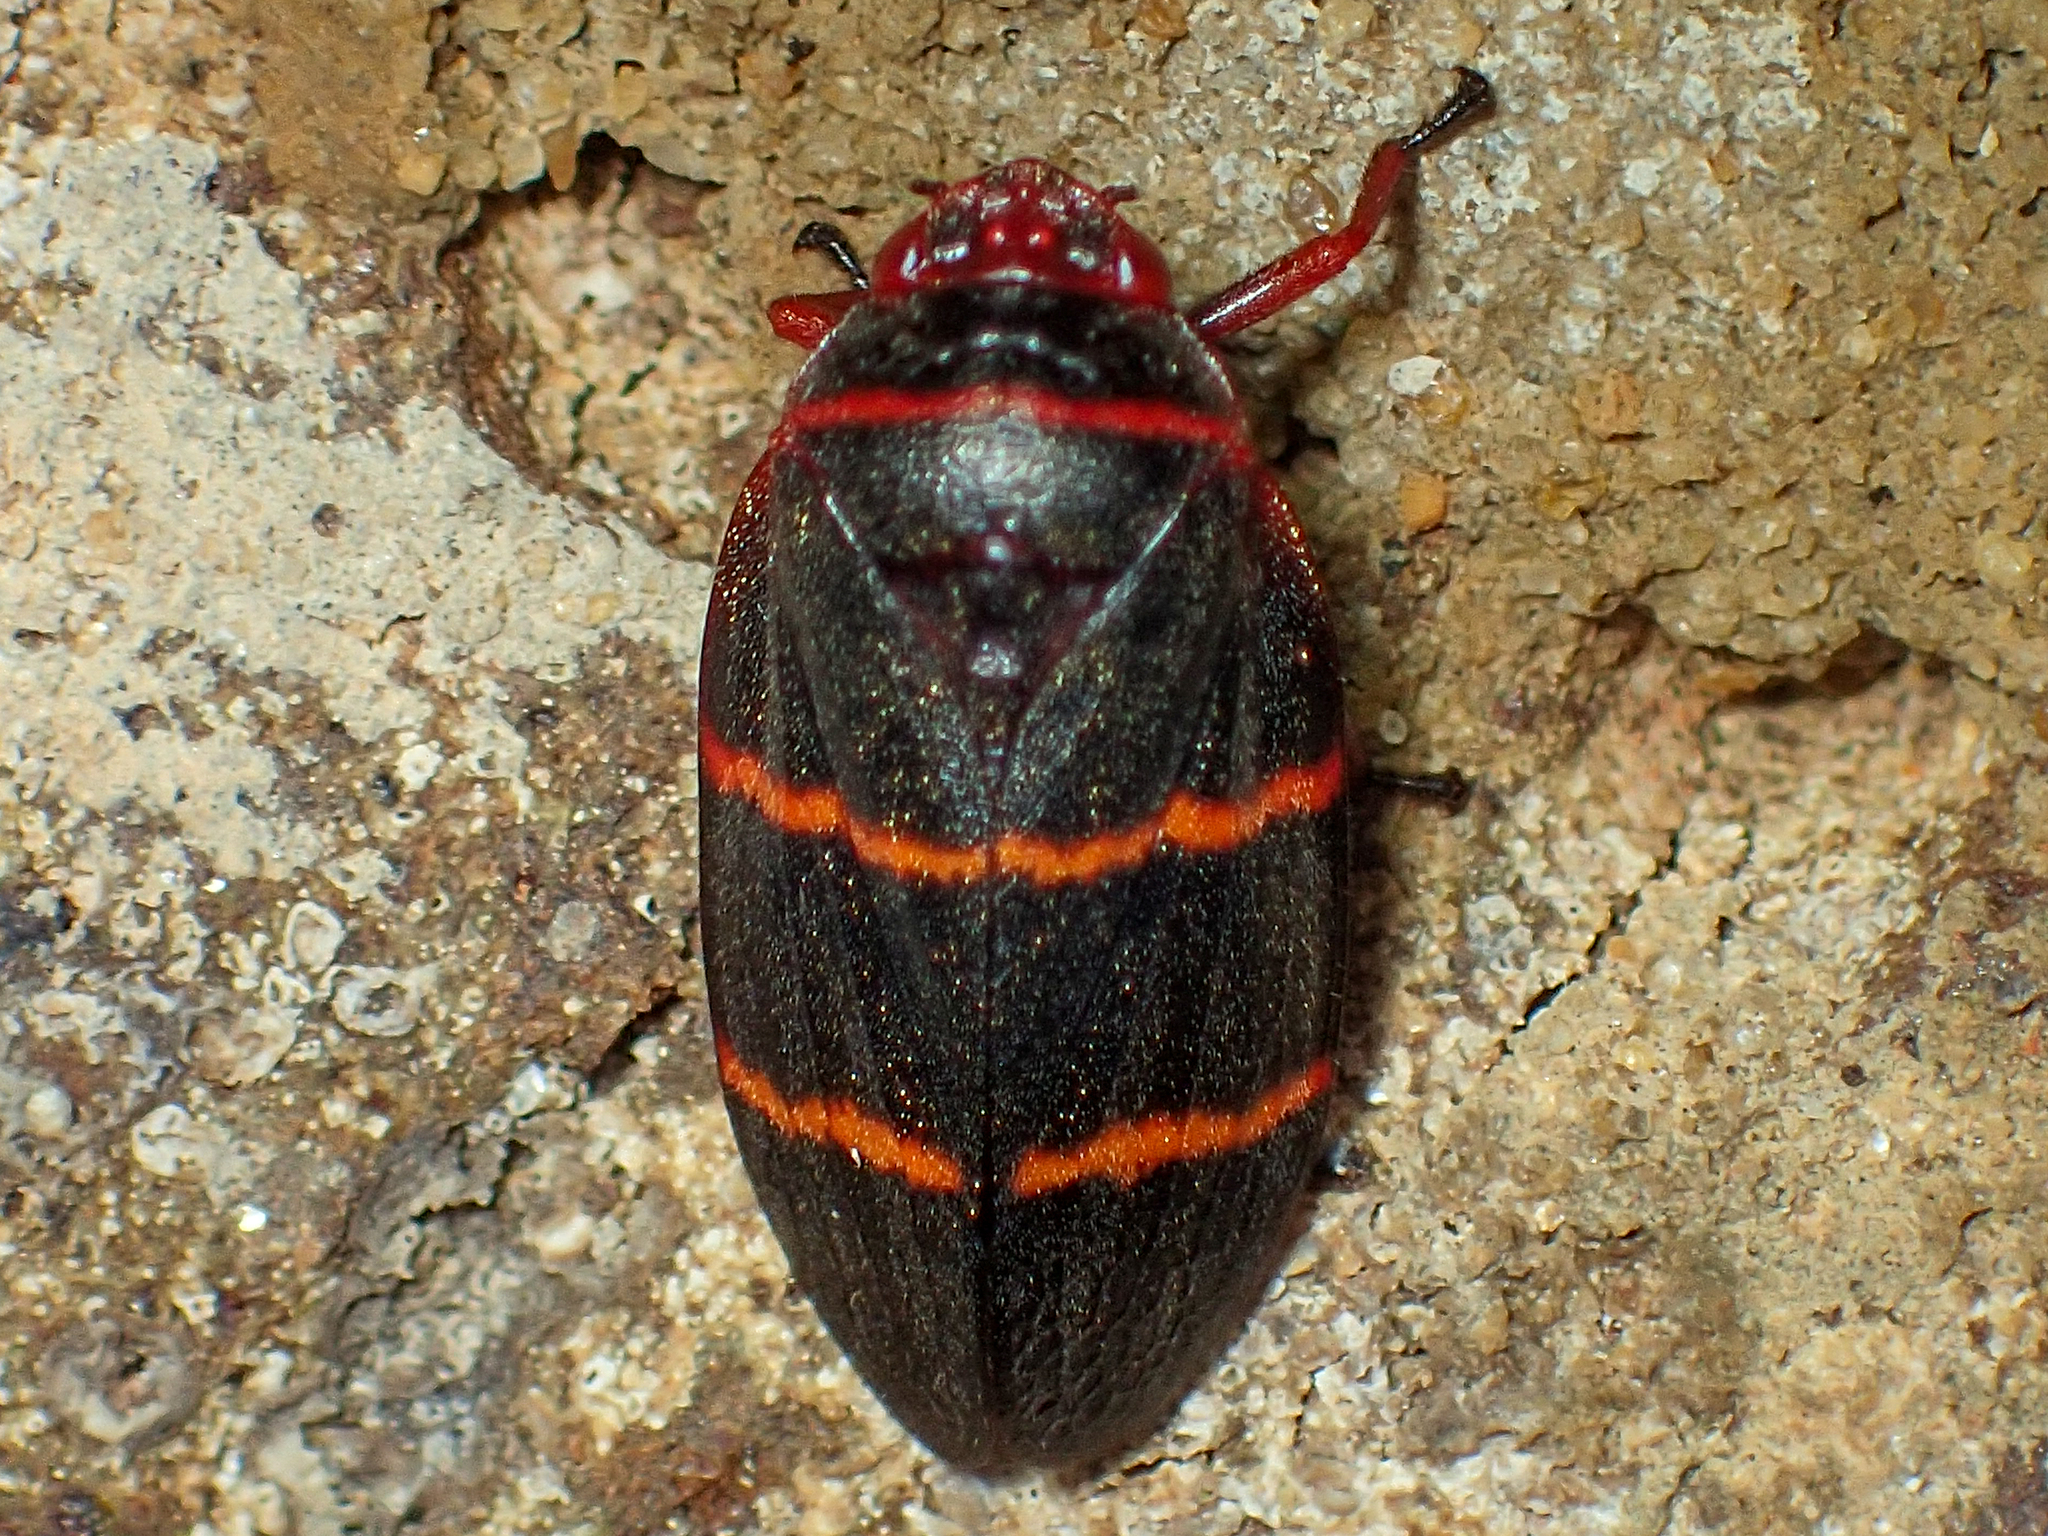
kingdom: Animalia
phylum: Arthropoda
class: Insecta
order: Hemiptera
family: Cercopidae
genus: Prosapia
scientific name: Prosapia bicincta
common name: Twolined spittlebug
